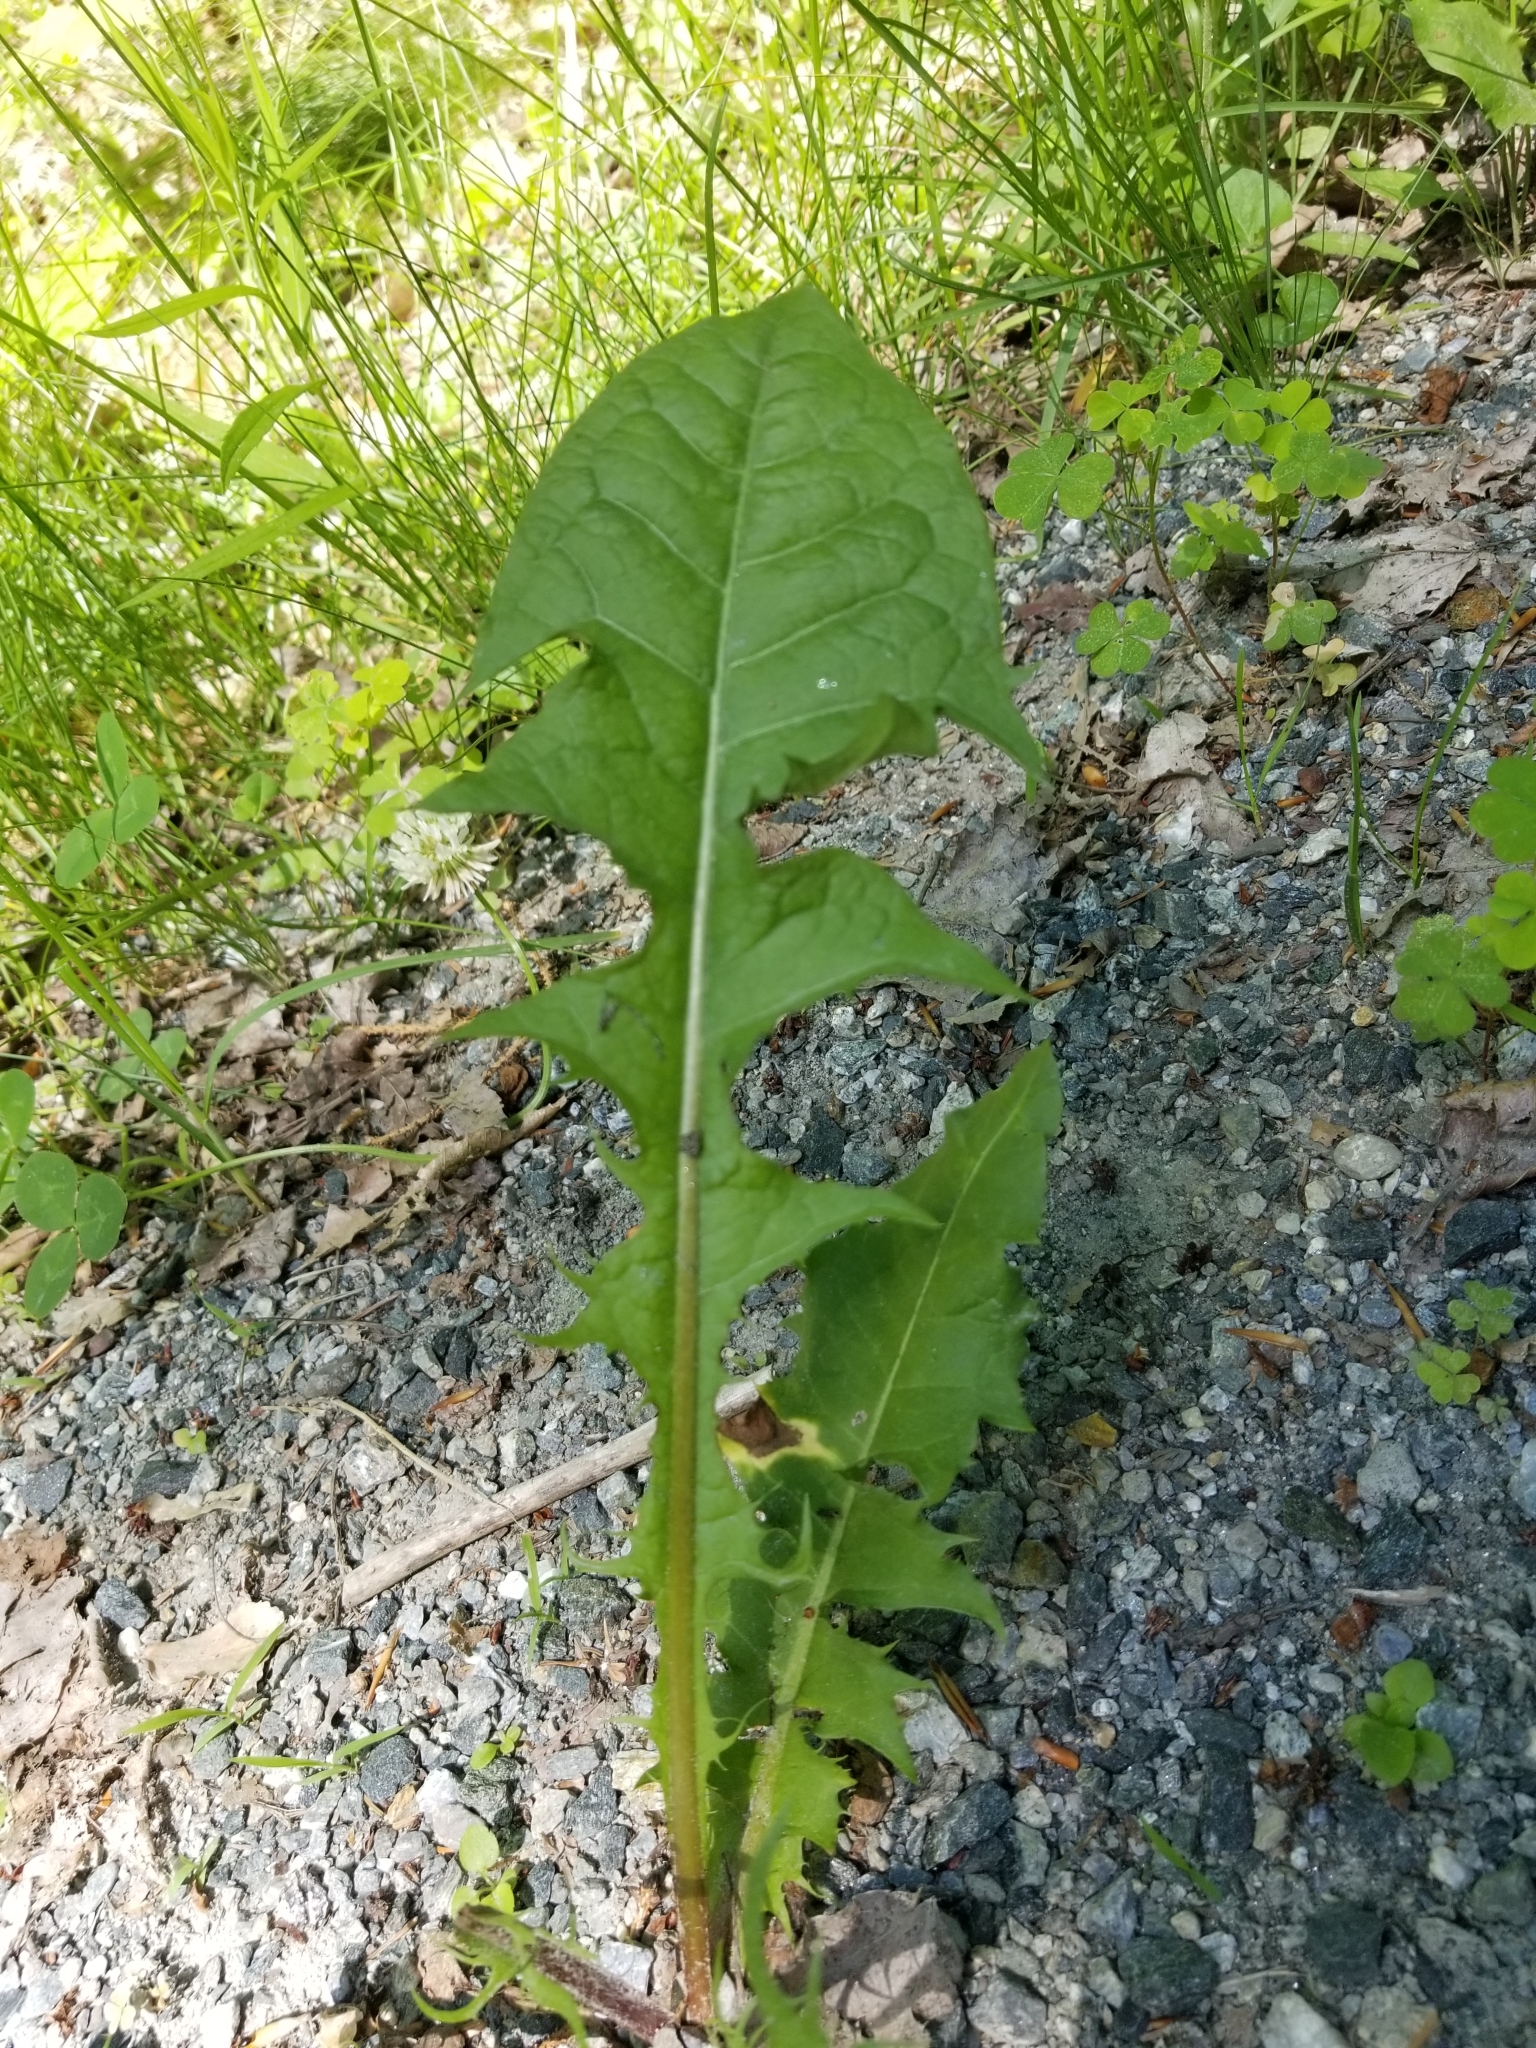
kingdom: Plantae
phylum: Tracheophyta
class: Magnoliopsida
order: Asterales
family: Asteraceae
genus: Taraxacum
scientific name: Taraxacum officinale
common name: Common dandelion
